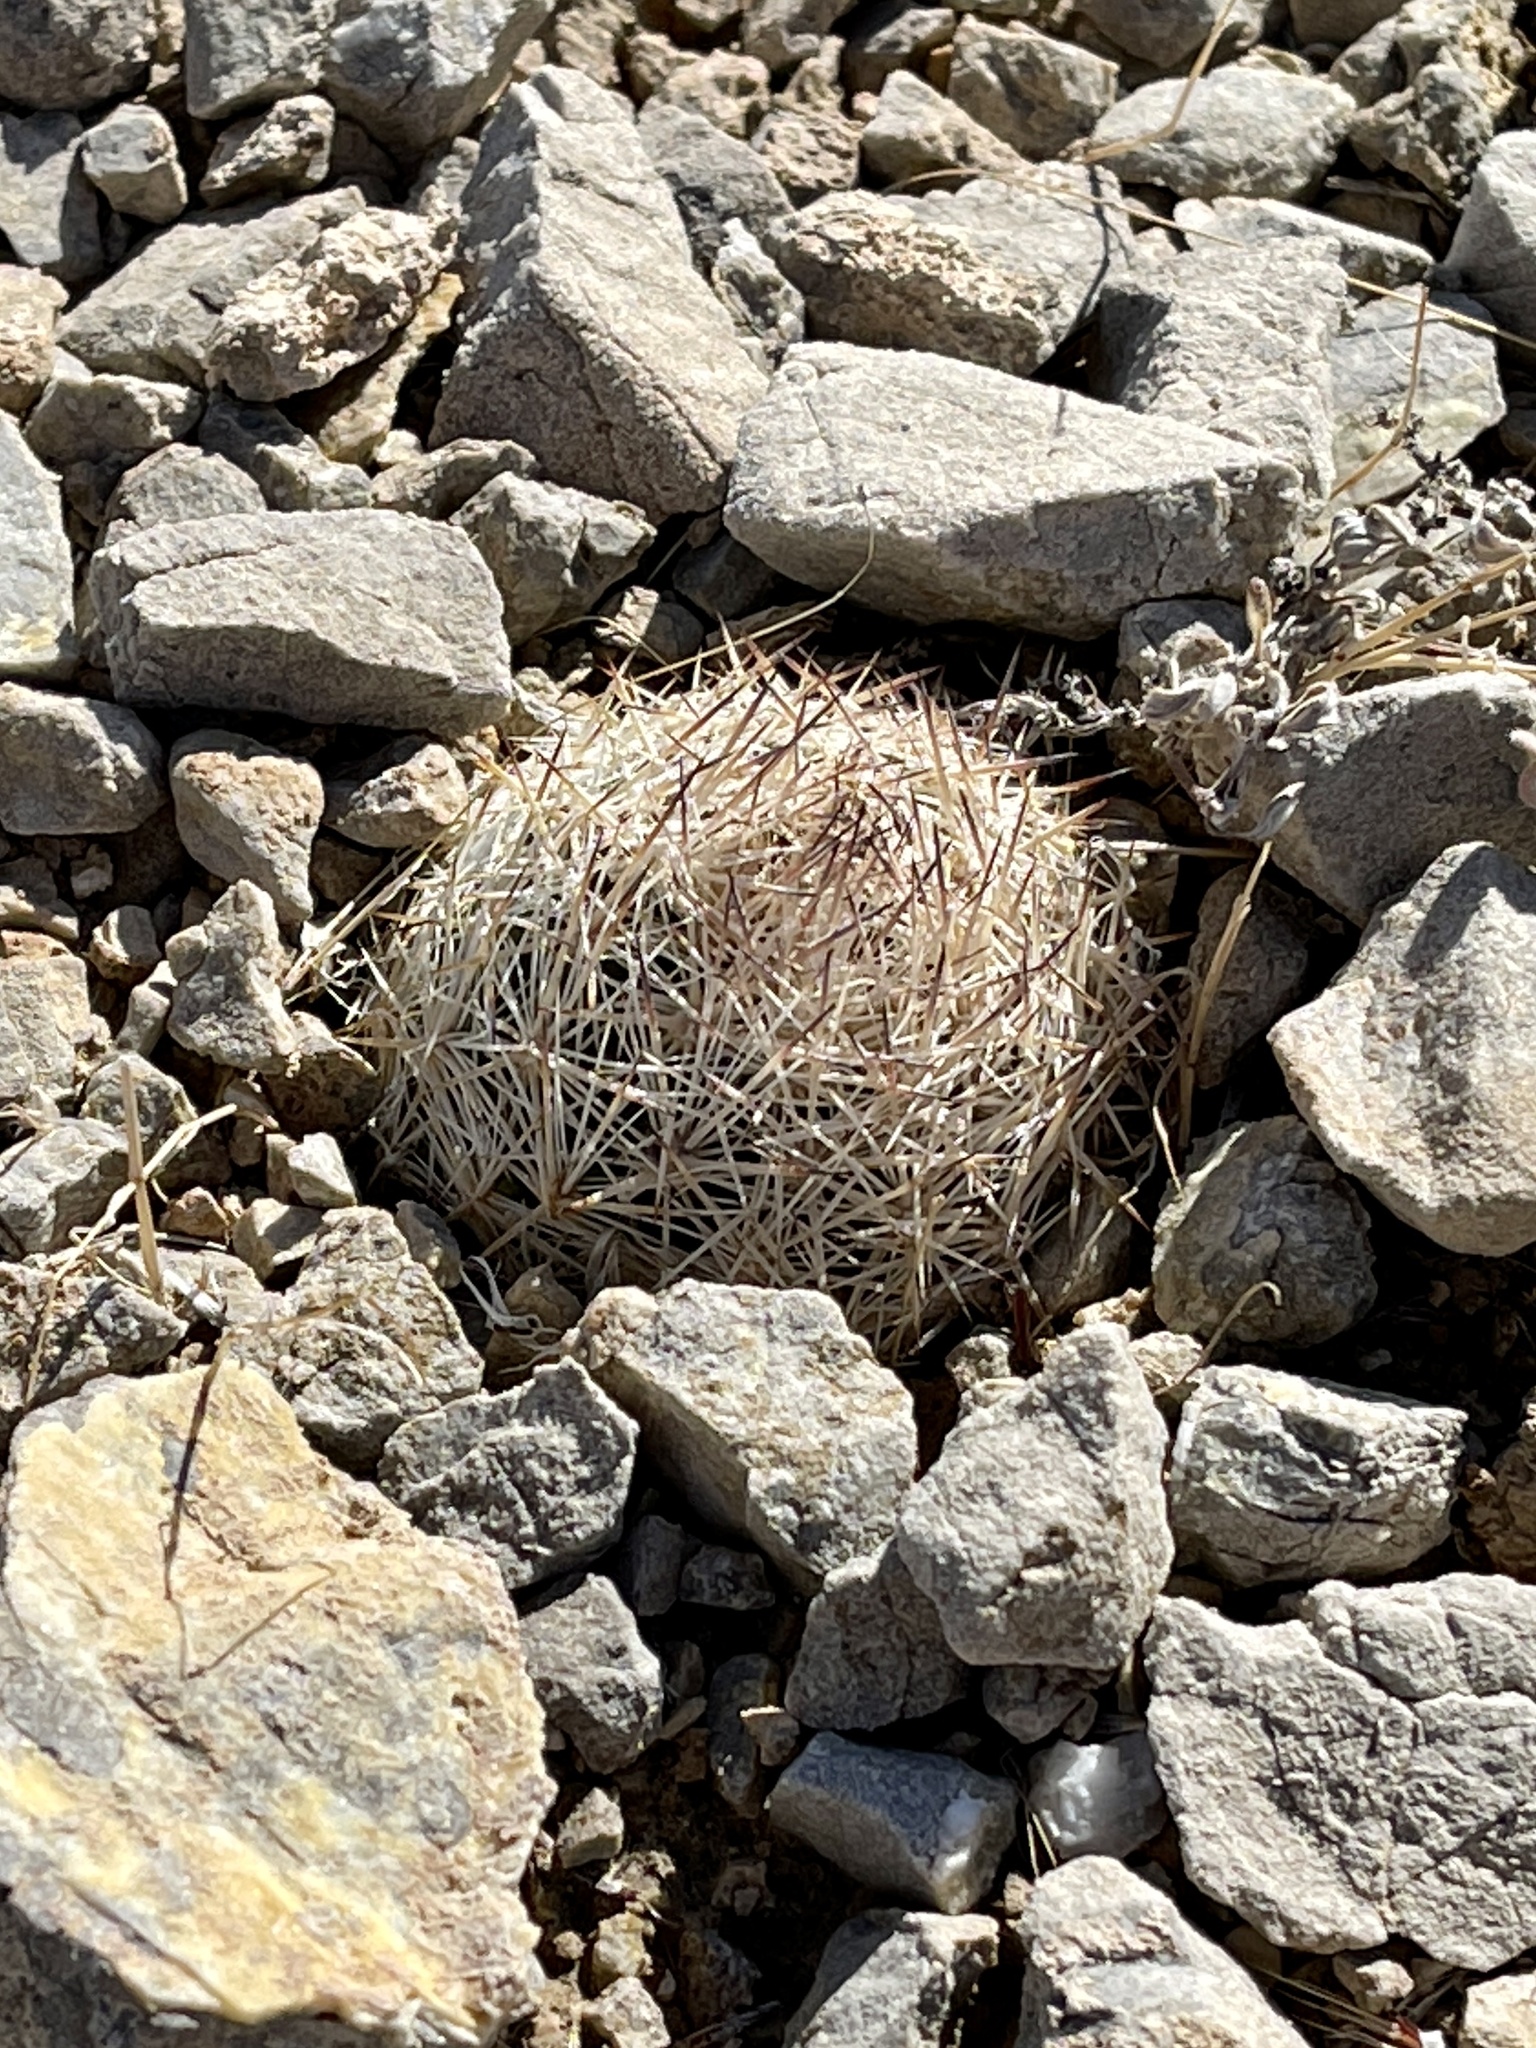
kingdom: Plantae
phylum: Tracheophyta
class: Magnoliopsida
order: Caryophyllales
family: Cactaceae
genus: Pelecyphora
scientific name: Pelecyphora dasyacantha
